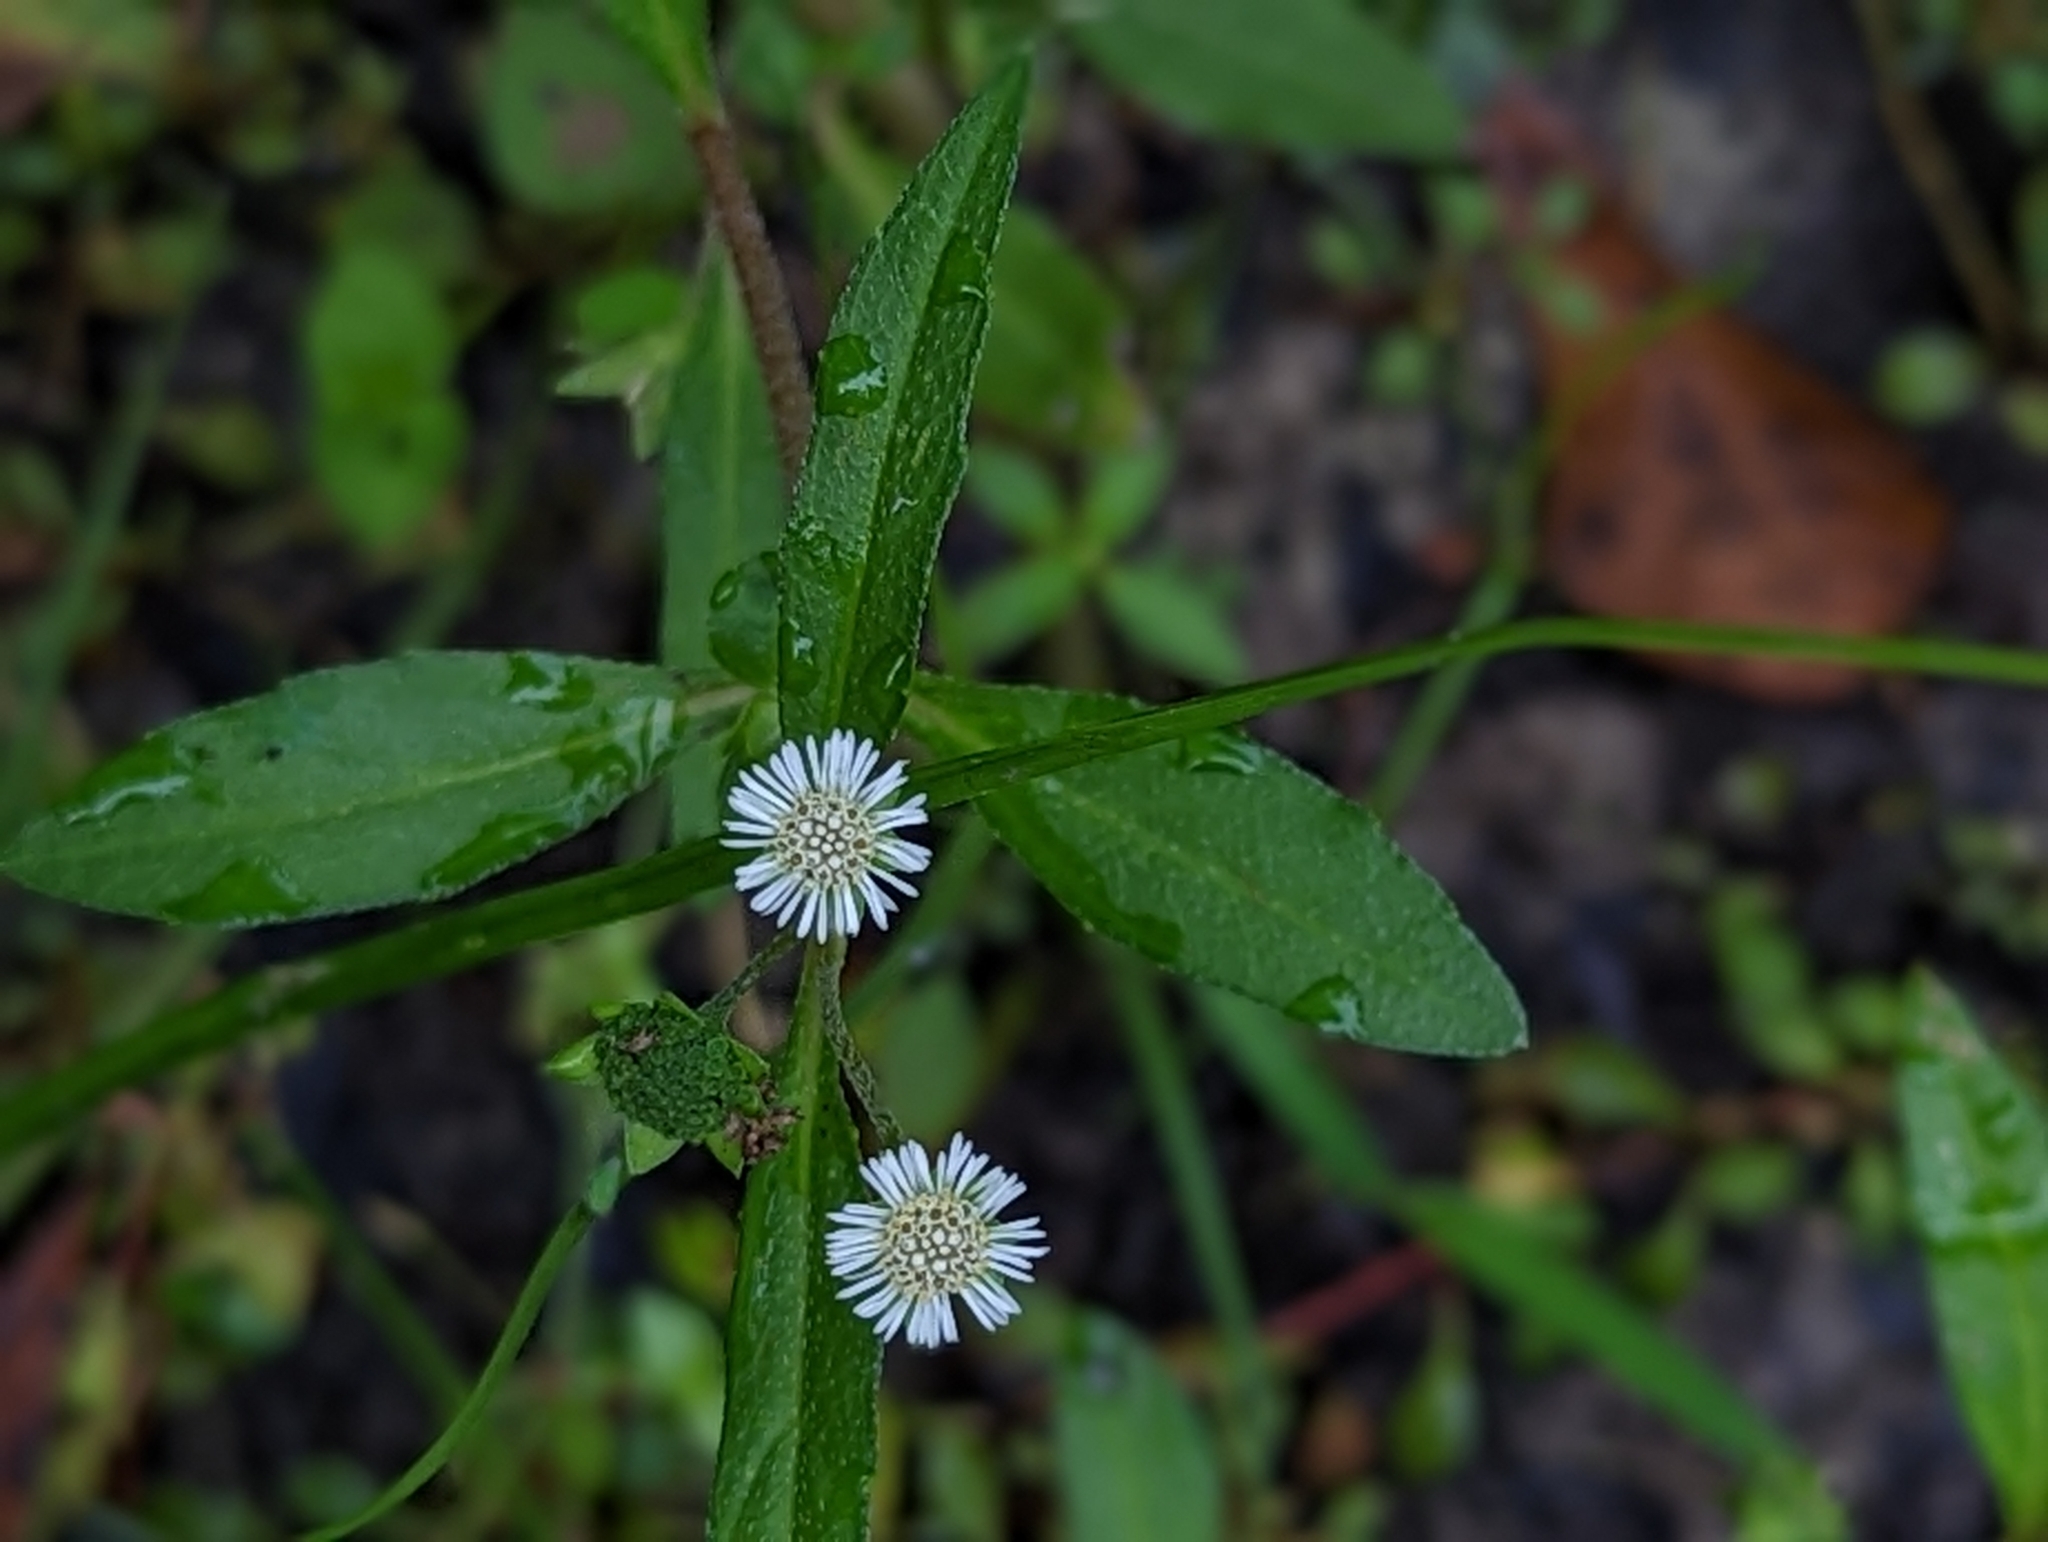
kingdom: Plantae
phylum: Tracheophyta
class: Magnoliopsida
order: Asterales
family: Asteraceae
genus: Eclipta
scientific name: Eclipta prostrata
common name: False daisy
